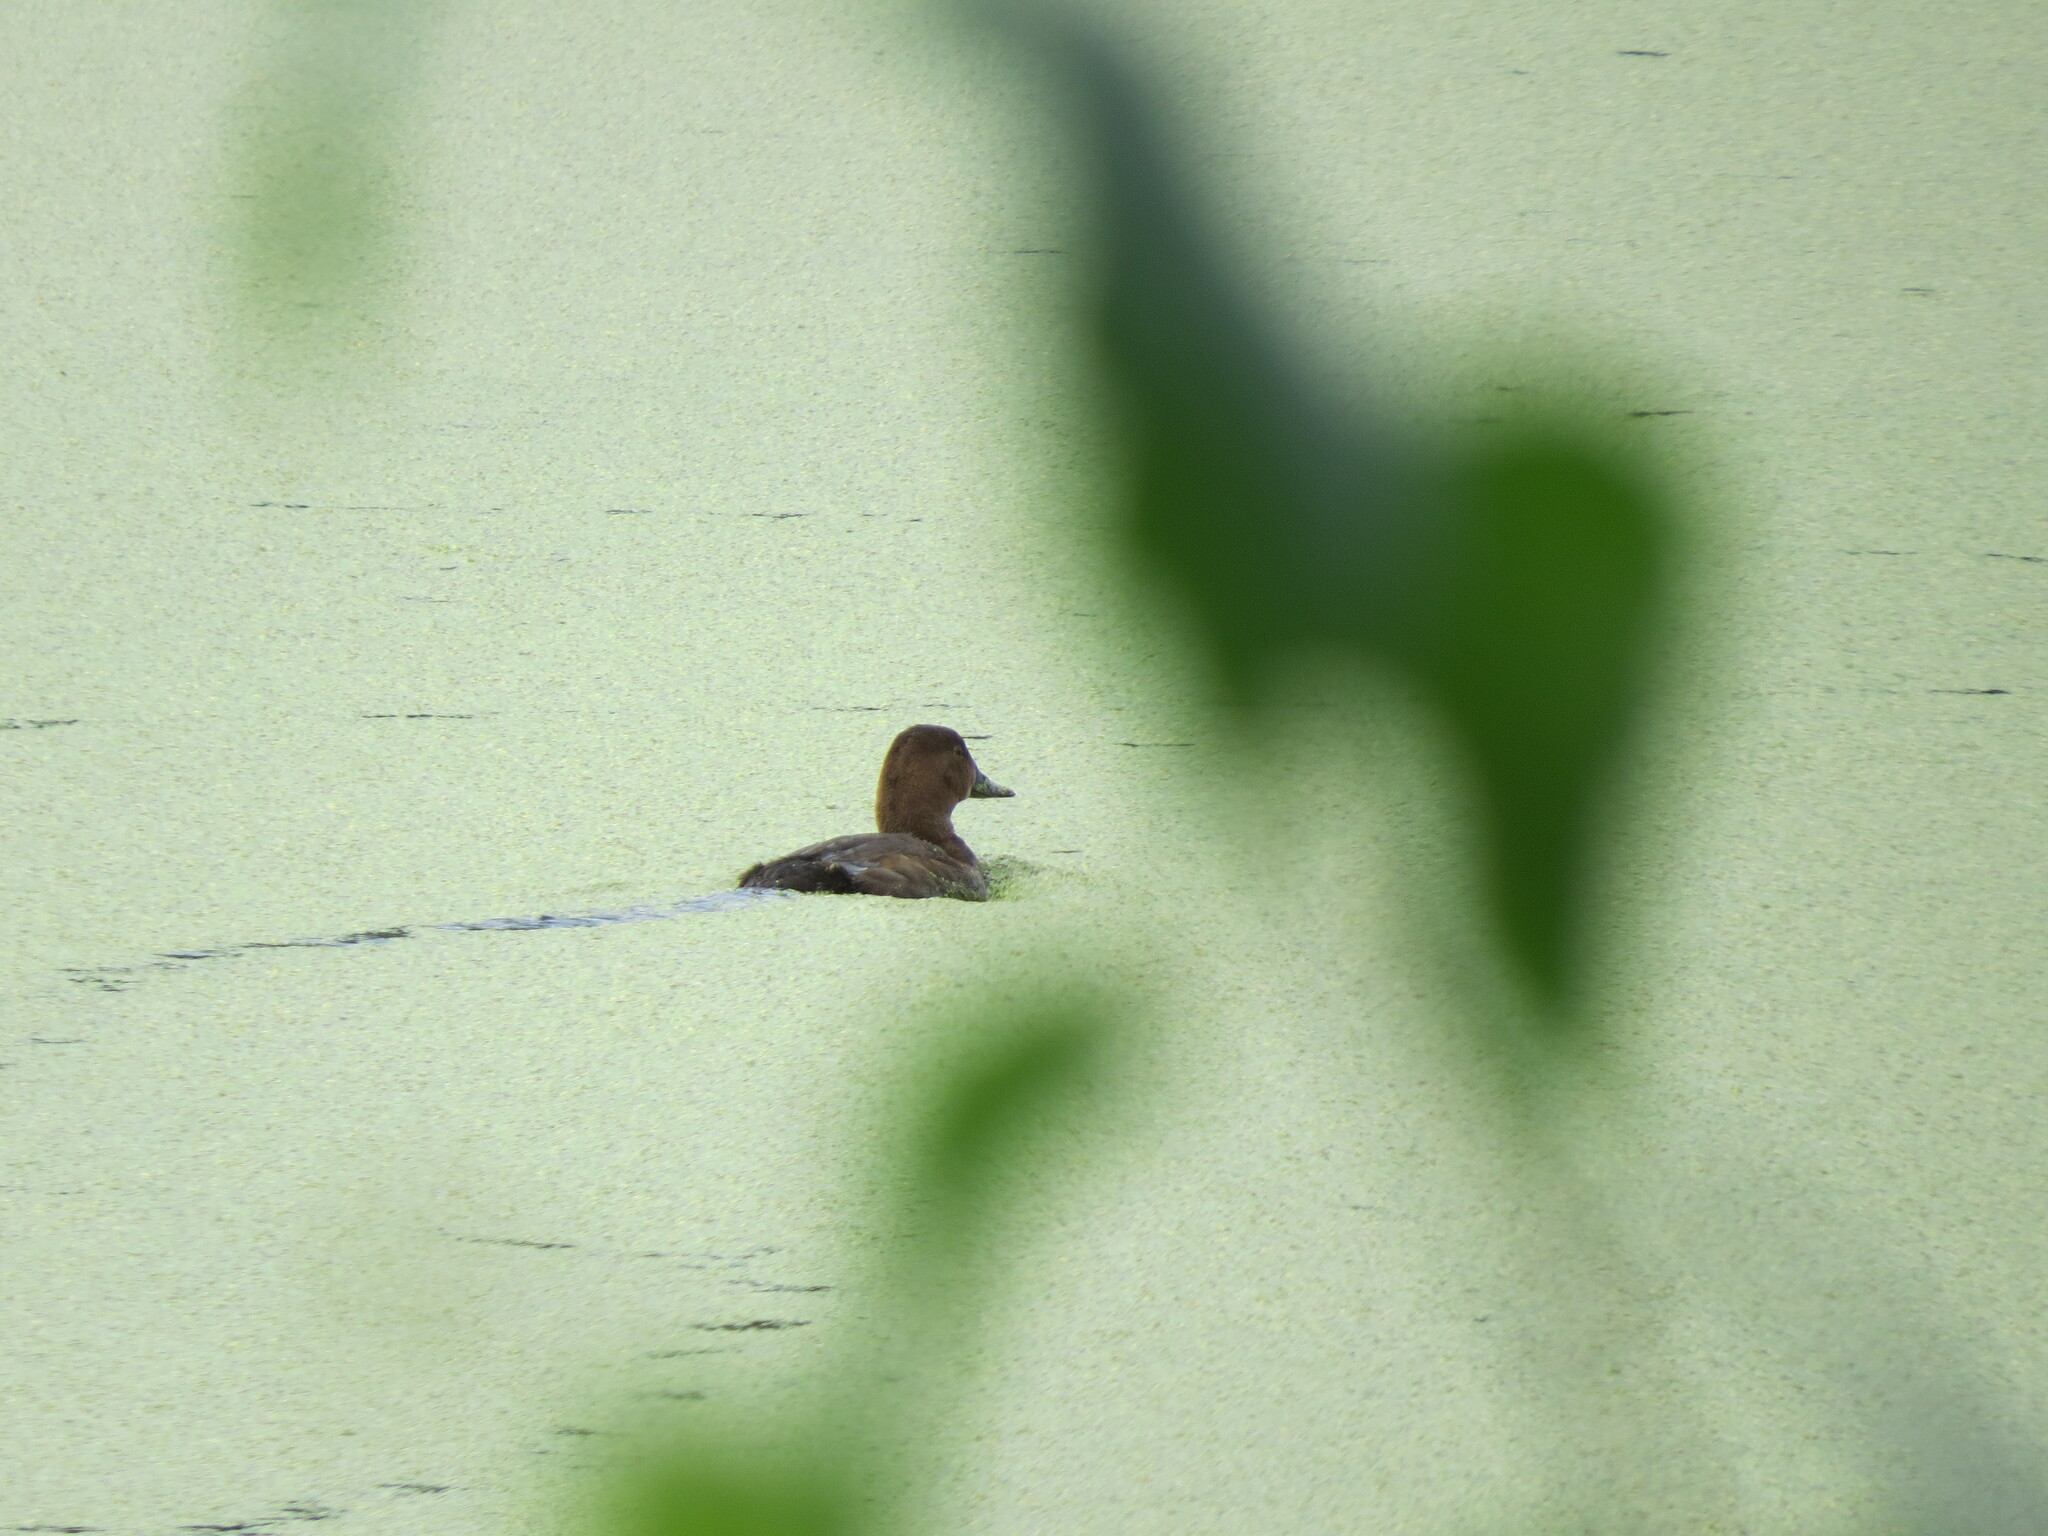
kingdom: Animalia
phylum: Chordata
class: Aves
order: Anseriformes
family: Anatidae
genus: Aythya
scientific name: Aythya ferina
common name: Common pochard
